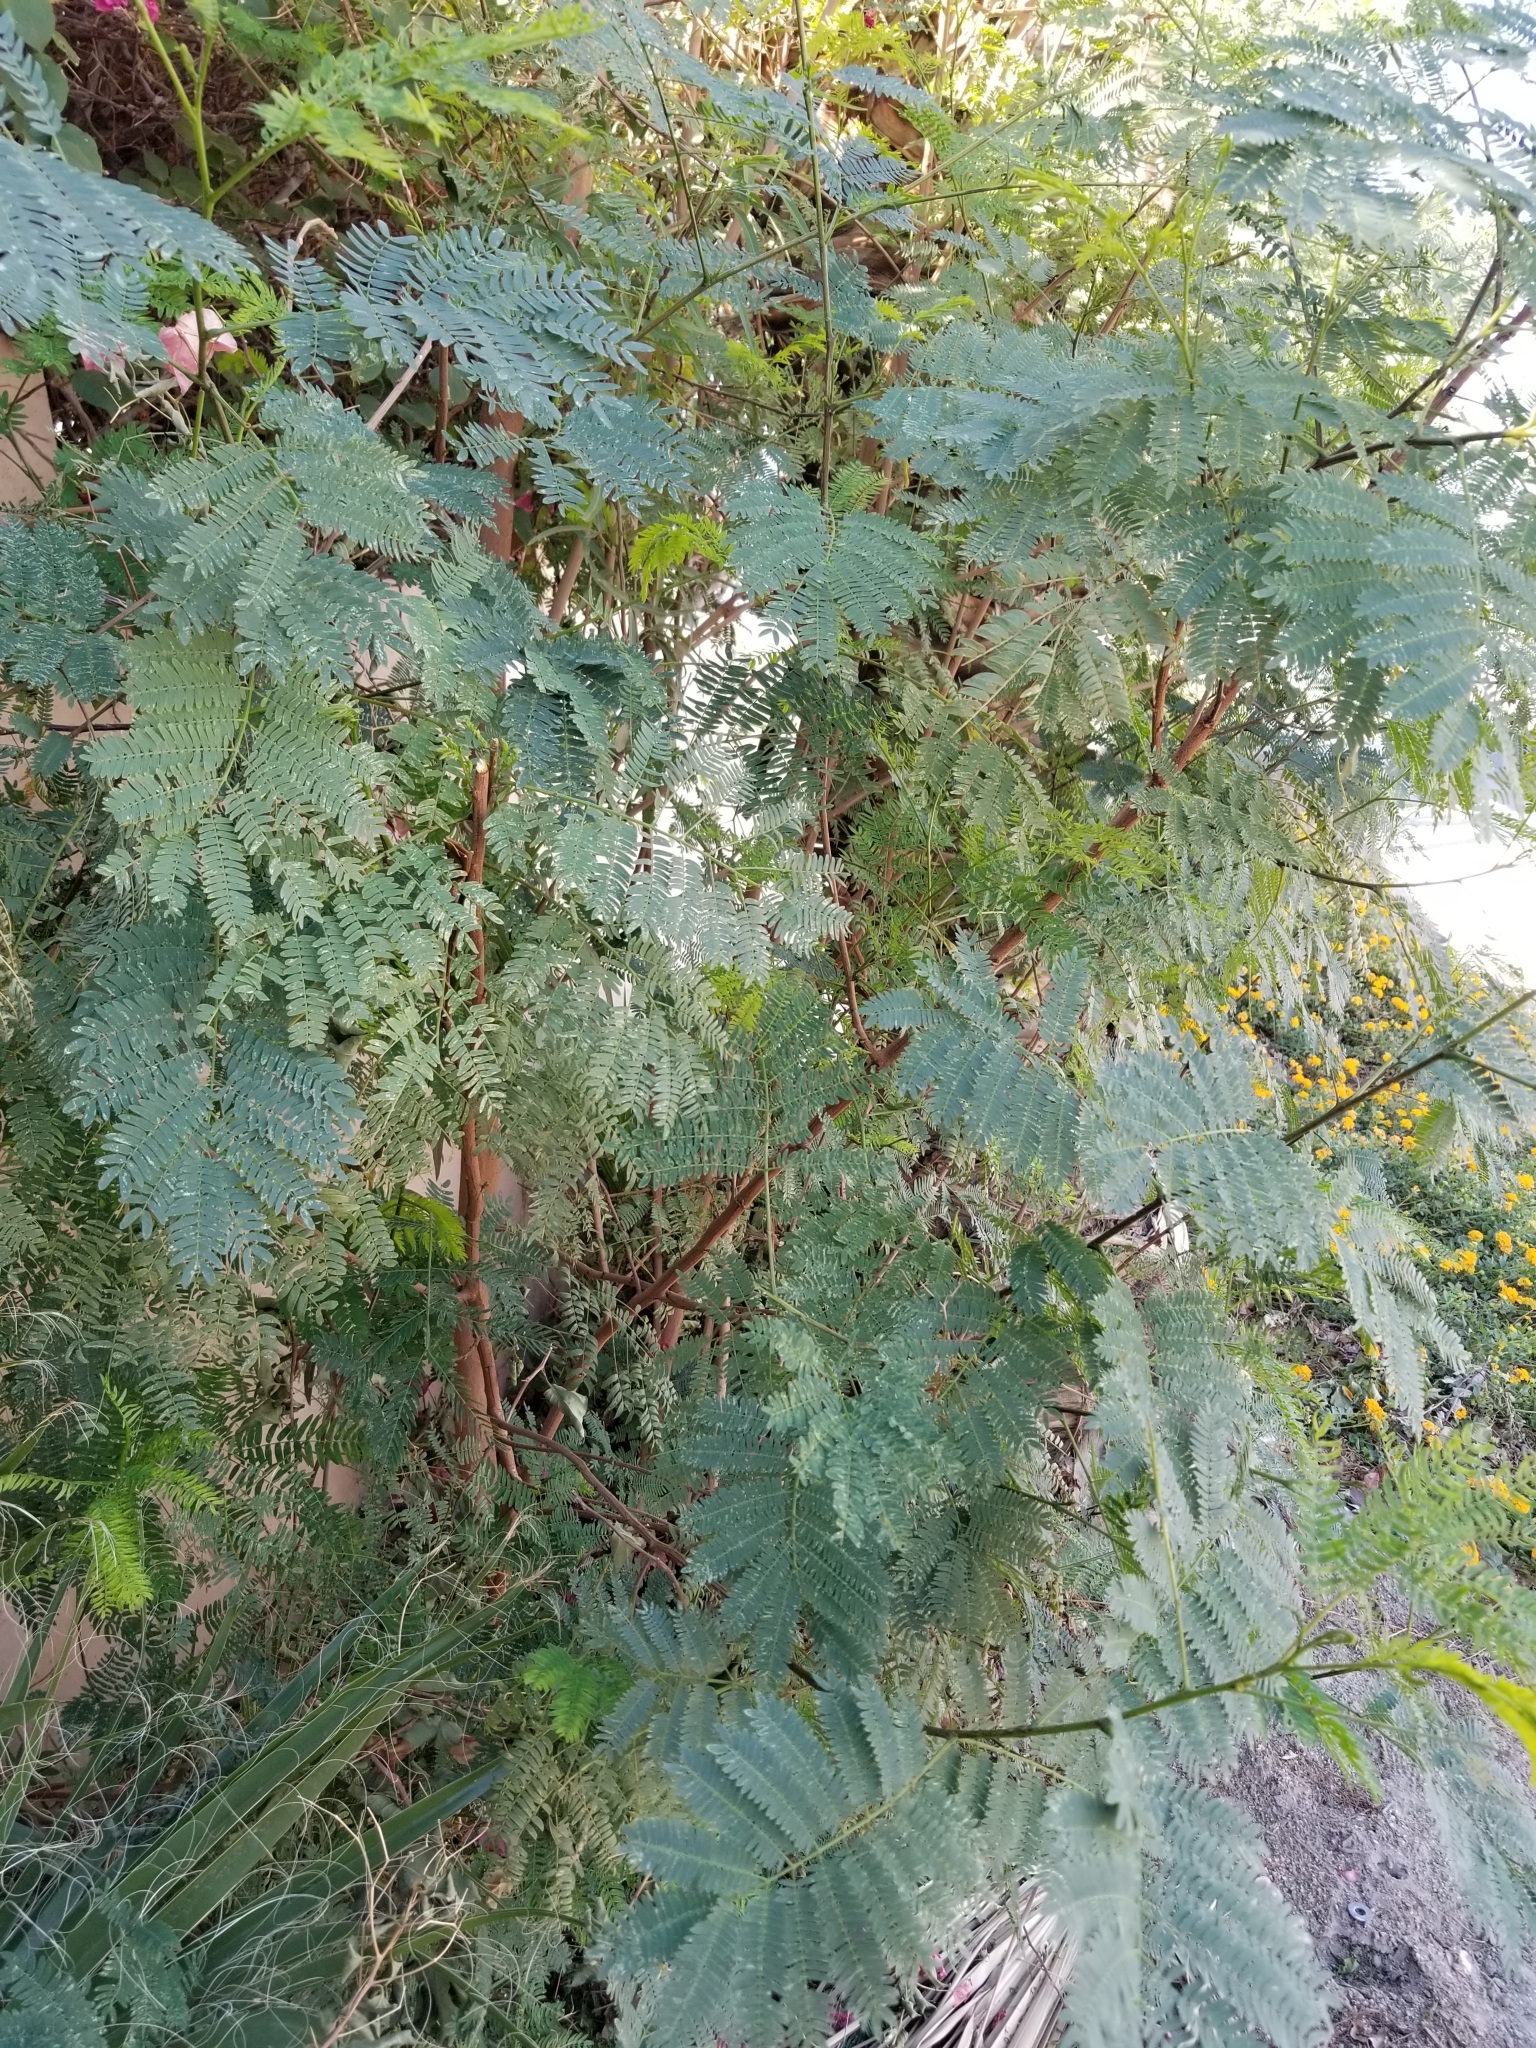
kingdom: Plantae
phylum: Tracheophyta
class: Magnoliopsida
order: Fabales
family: Fabaceae
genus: Leucaena
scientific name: Leucaena leucocephala
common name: White leadtree
